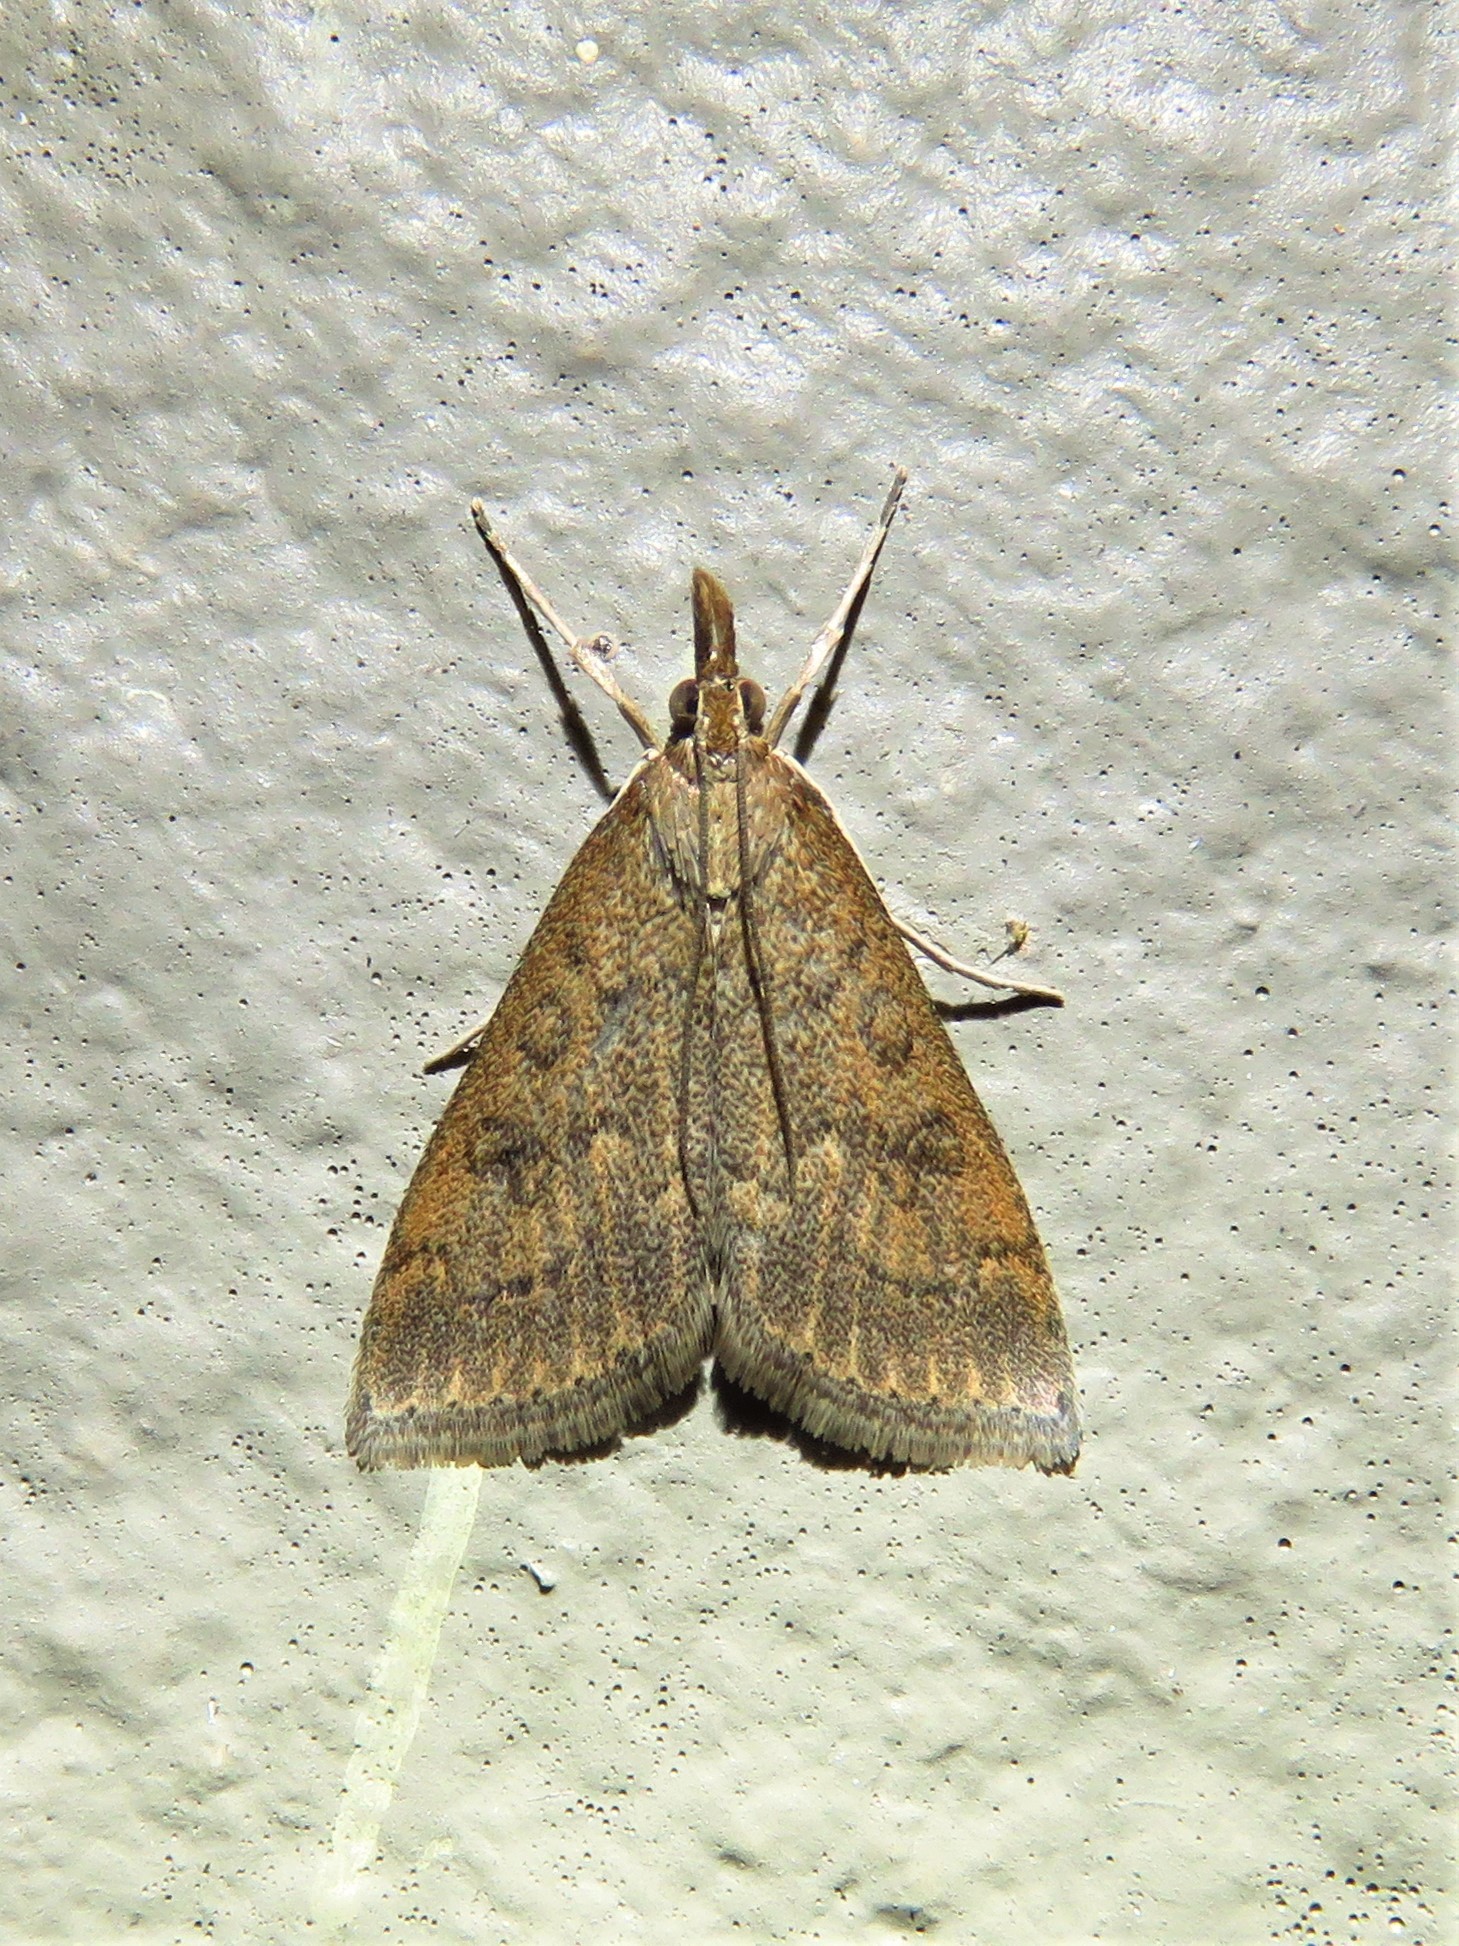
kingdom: Animalia
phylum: Arthropoda
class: Insecta
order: Lepidoptera
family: Crambidae
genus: Udea
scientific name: Udea rubigalis
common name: Celery leaftier moth
